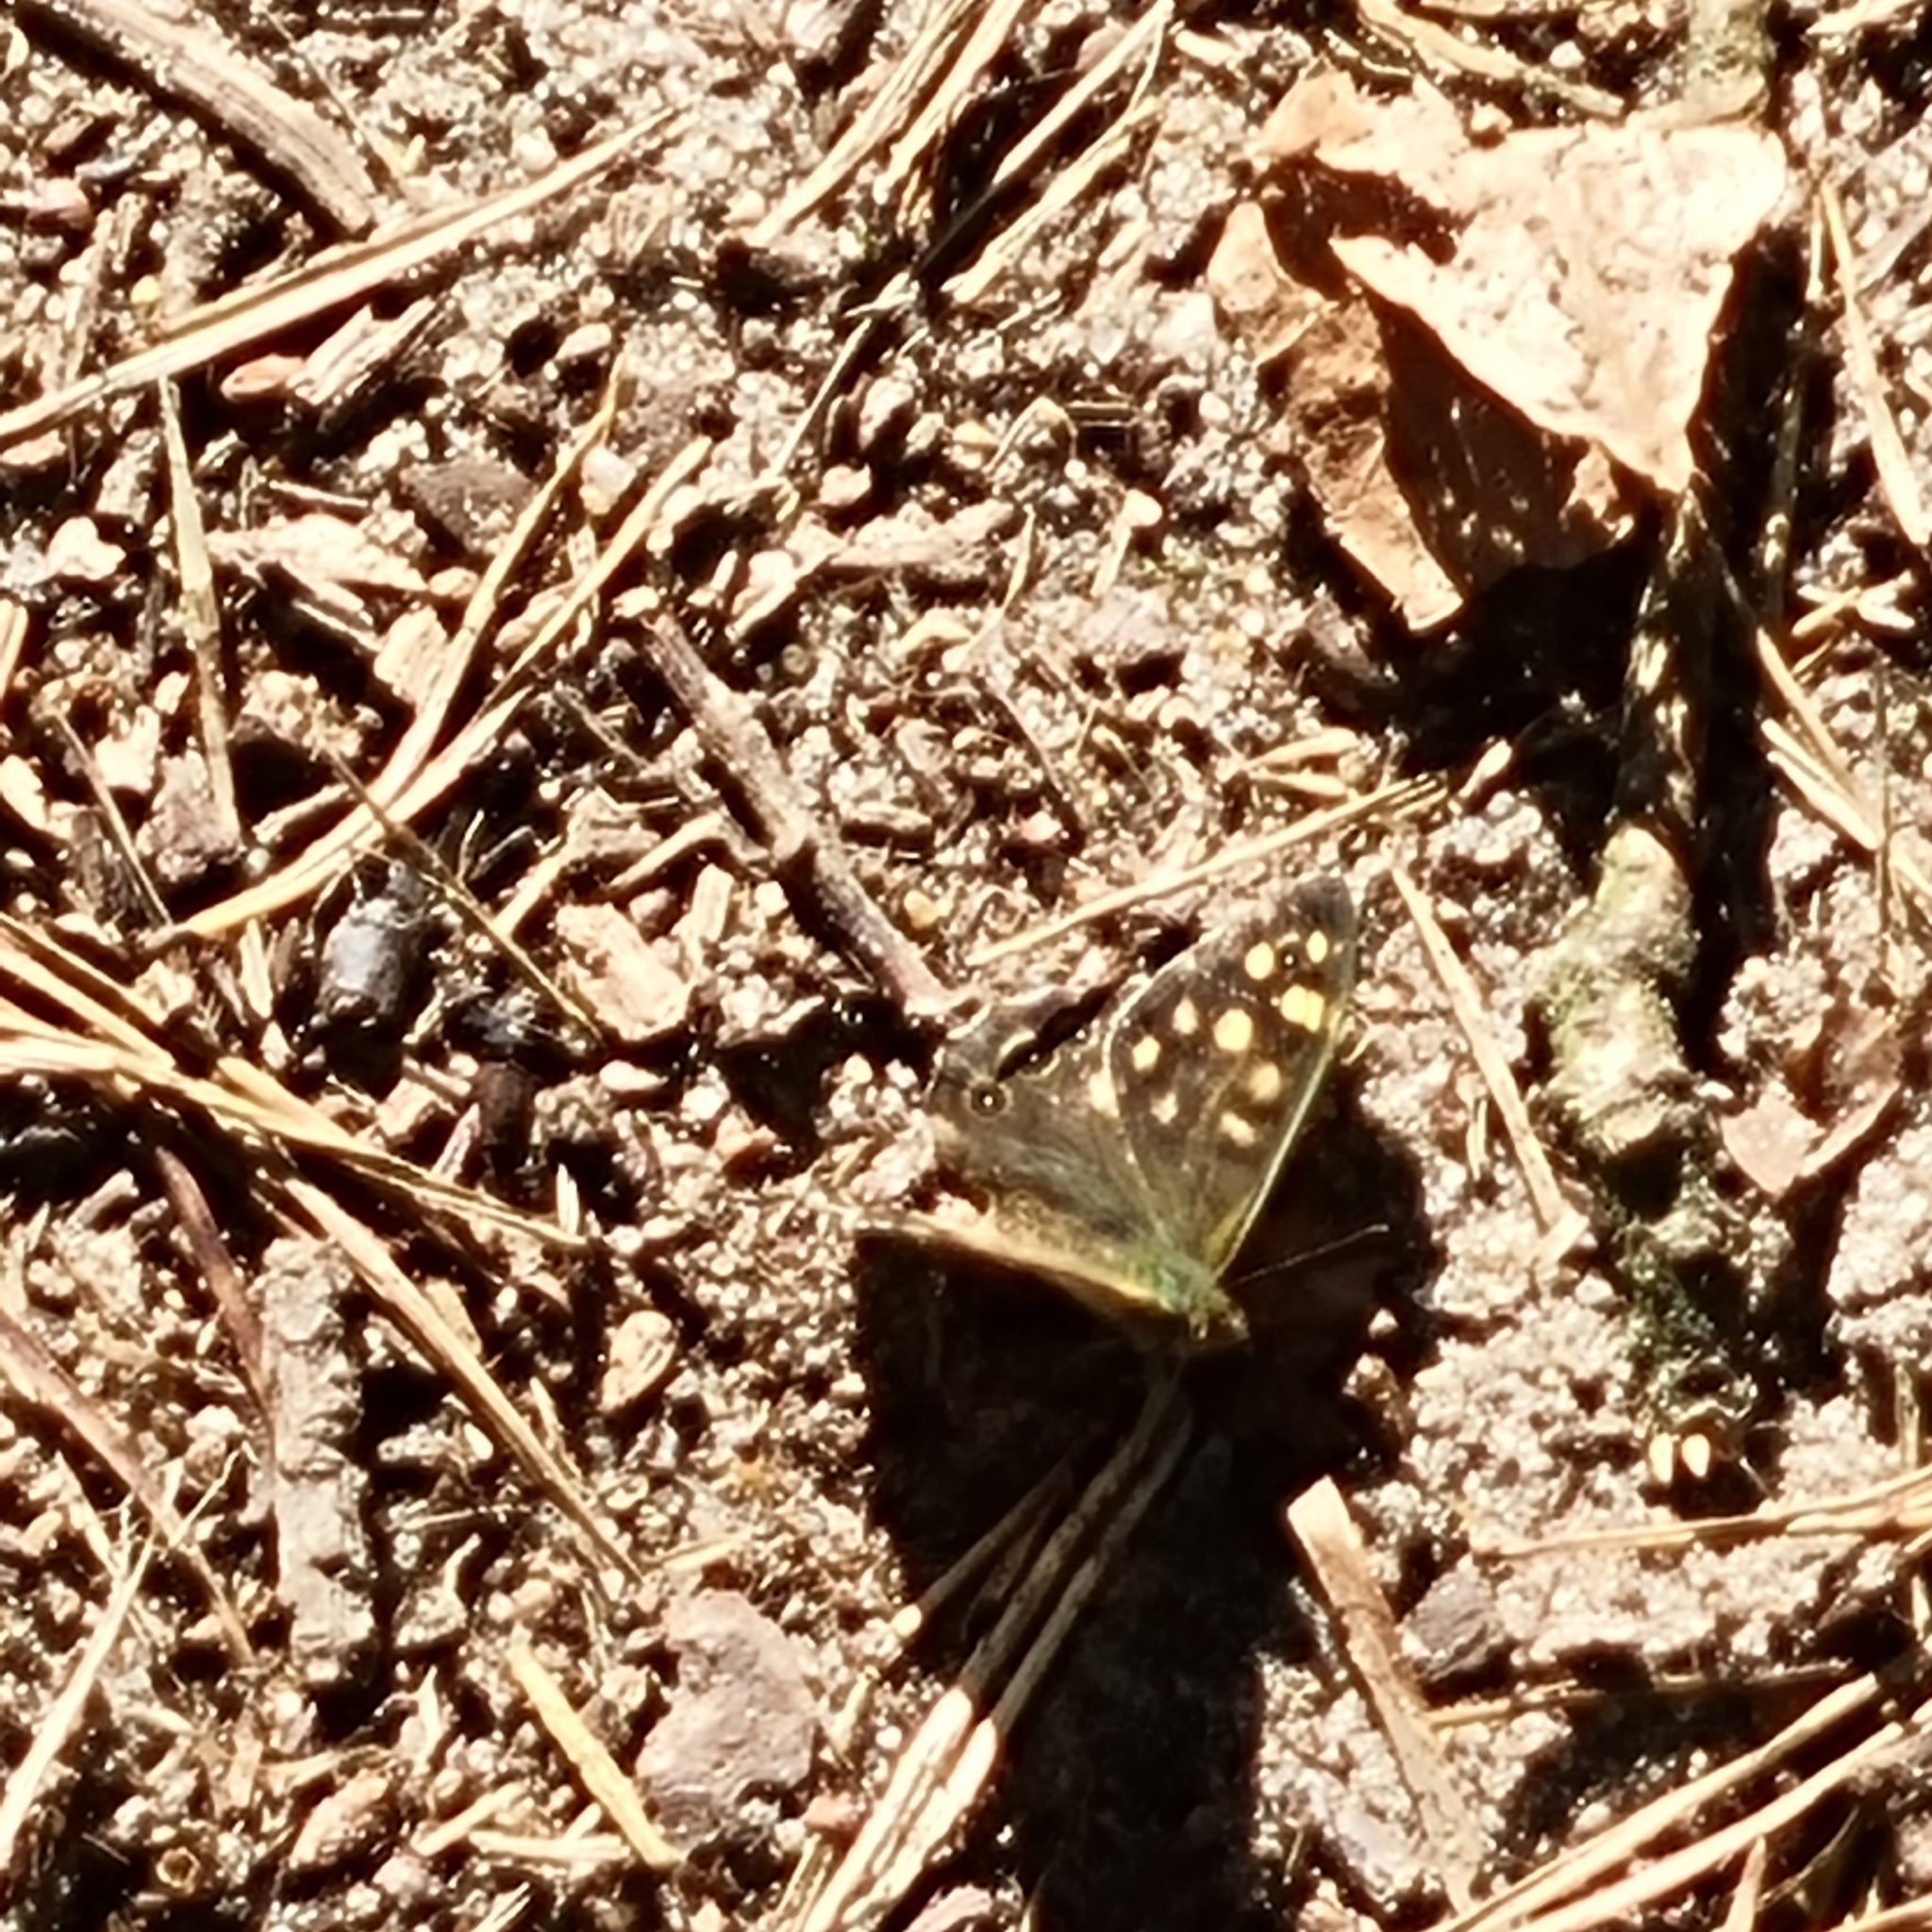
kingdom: Animalia
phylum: Arthropoda
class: Insecta
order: Lepidoptera
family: Nymphalidae
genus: Pararge
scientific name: Pararge aegeria
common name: Speckled wood
